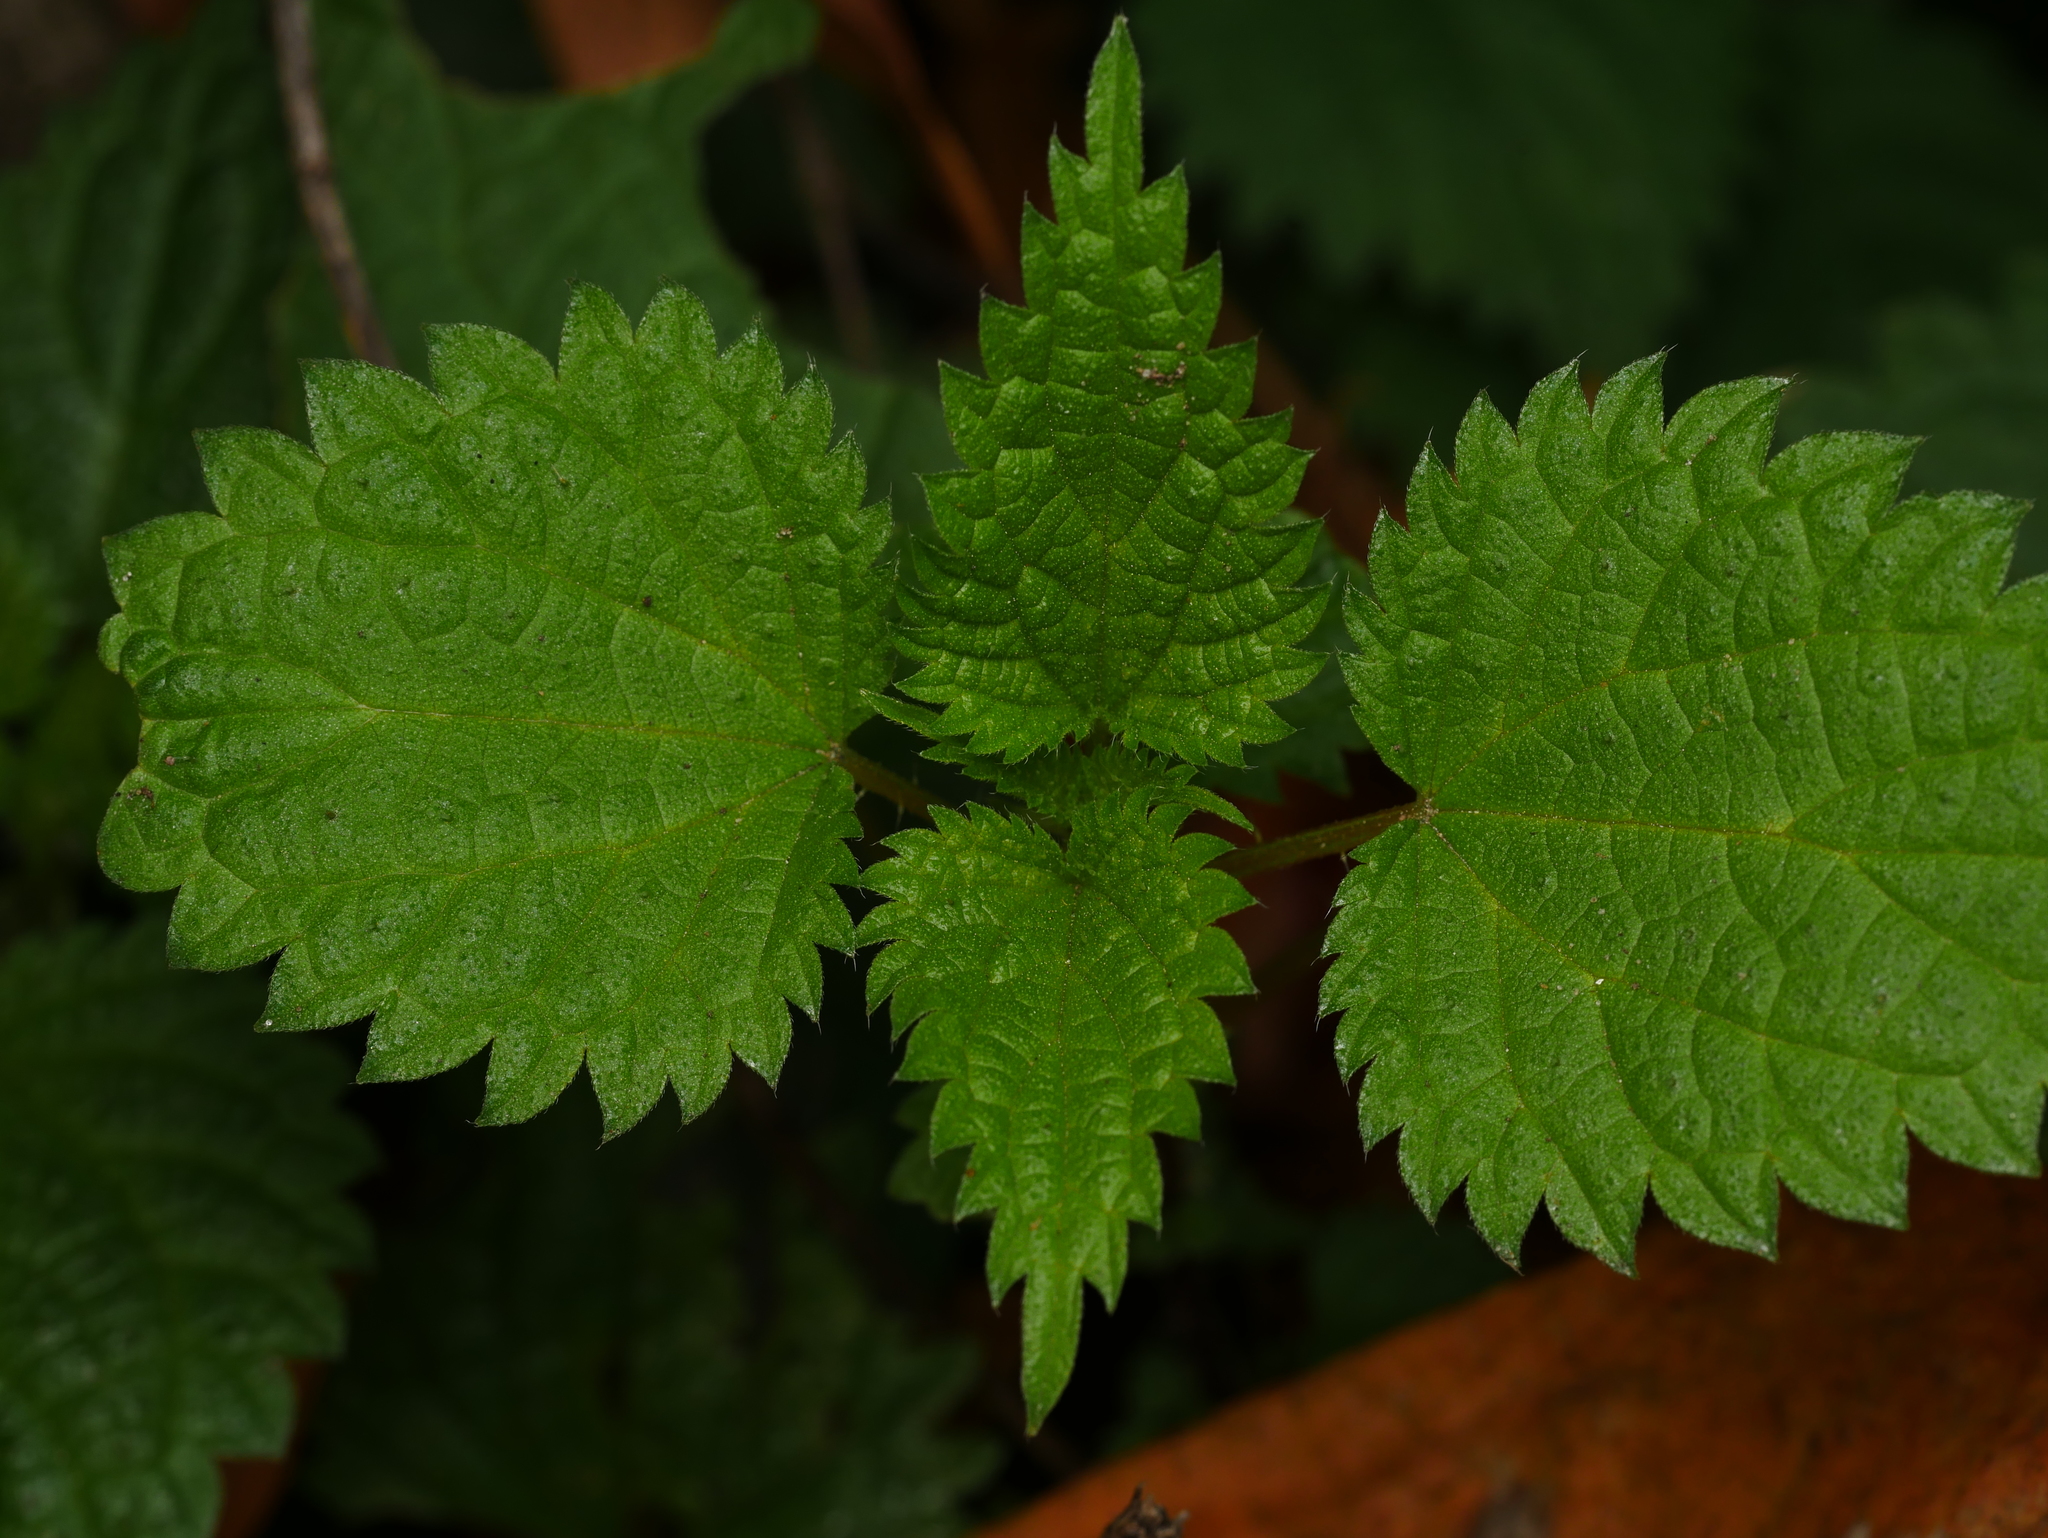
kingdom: Plantae
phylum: Tracheophyta
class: Magnoliopsida
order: Rosales
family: Urticaceae
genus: Urtica
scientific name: Urtica dioica
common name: Common nettle
